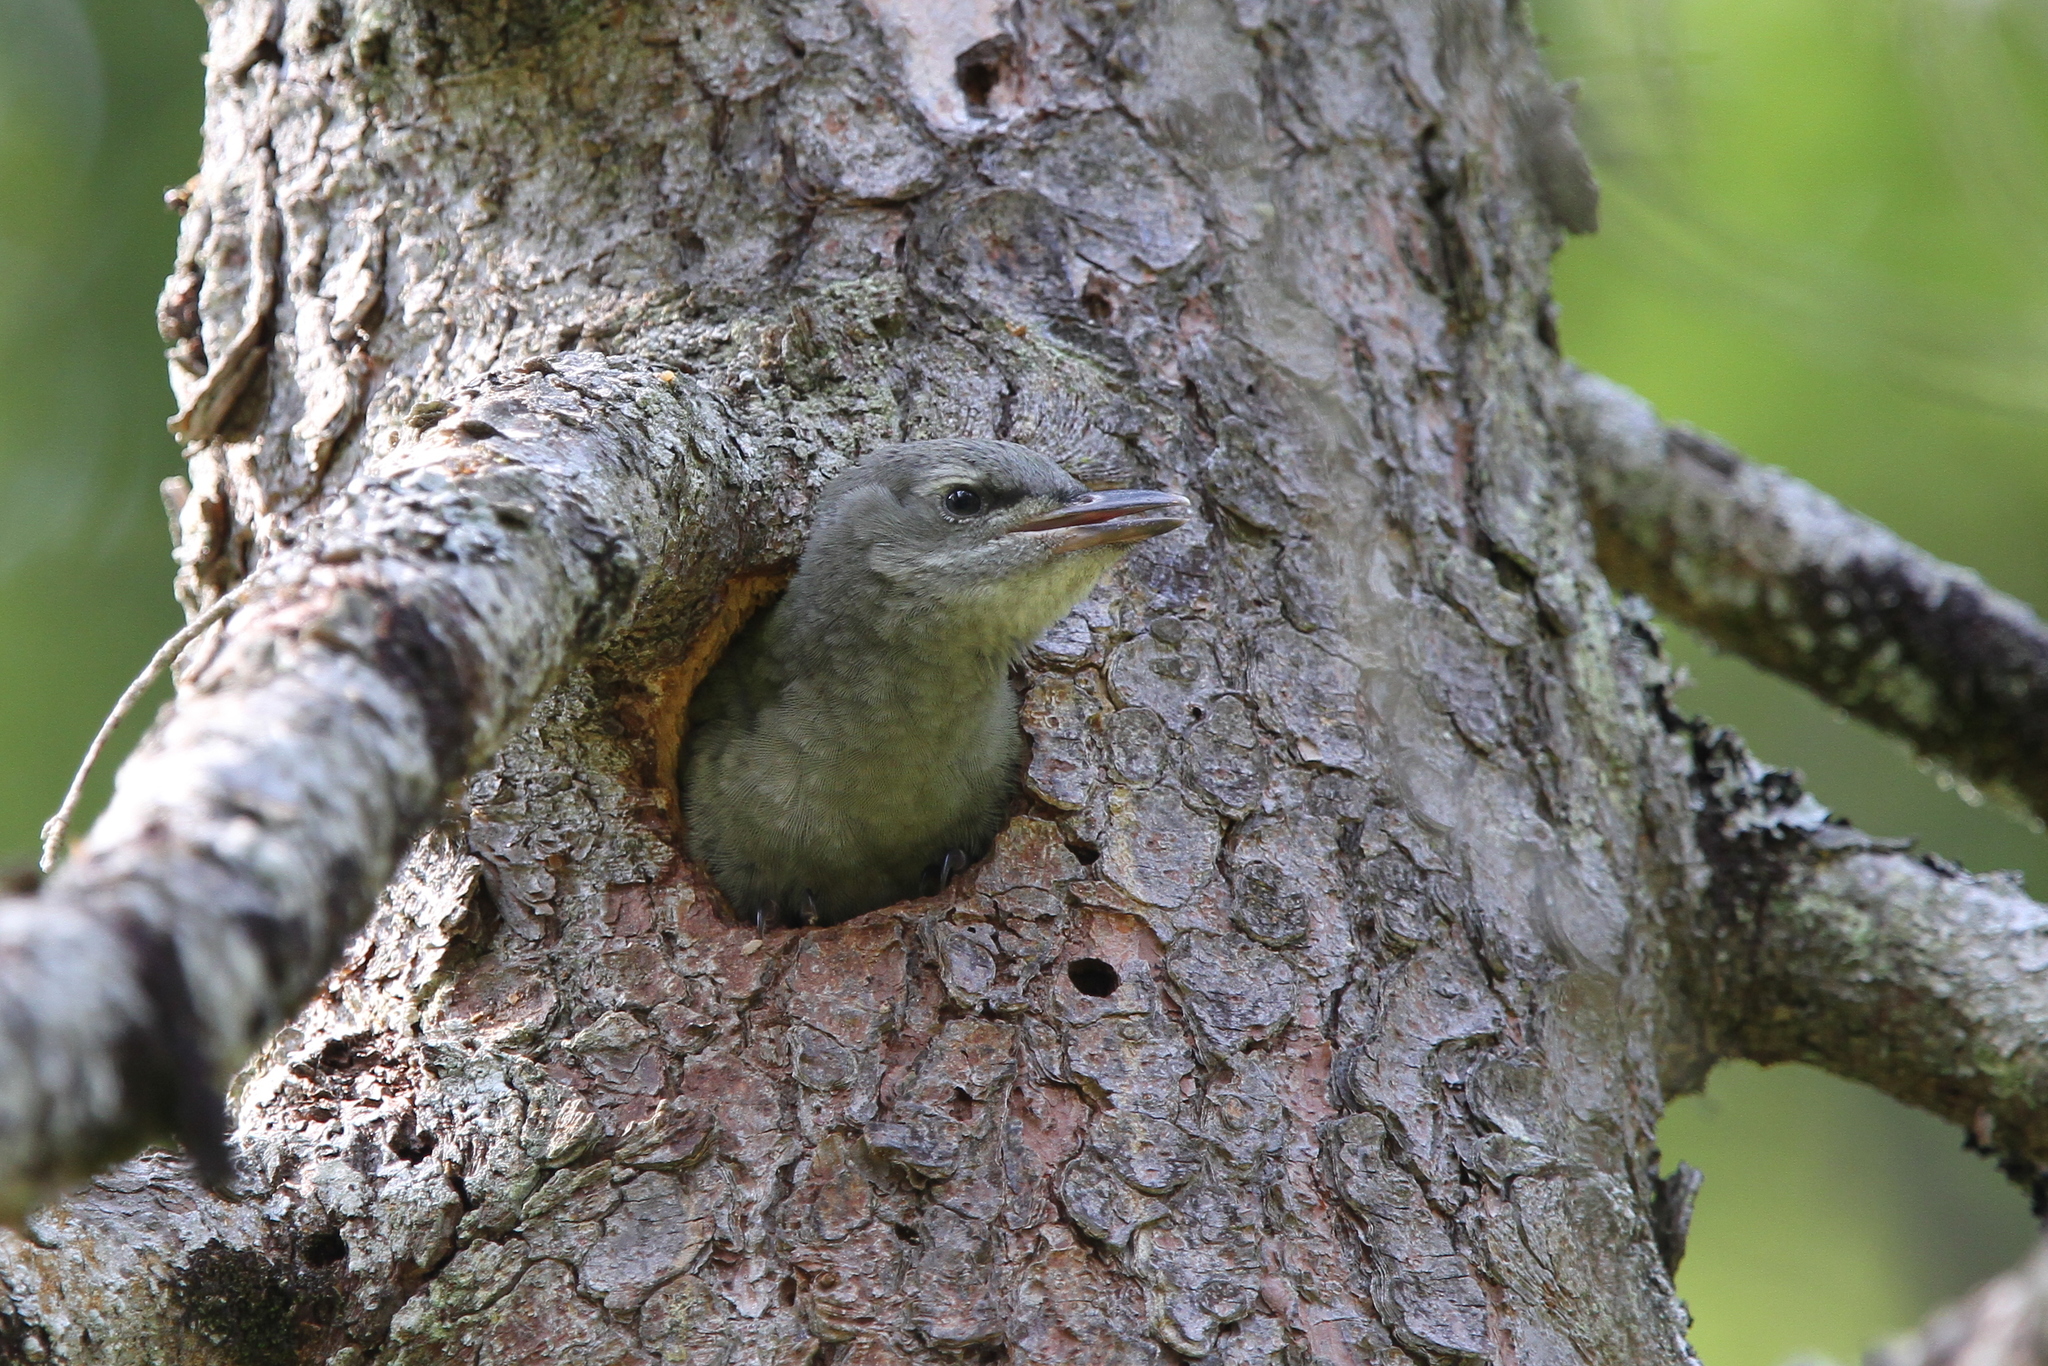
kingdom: Animalia
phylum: Chordata
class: Aves
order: Piciformes
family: Picidae
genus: Picus
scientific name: Picus canus
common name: Grey-headed woodpecker
